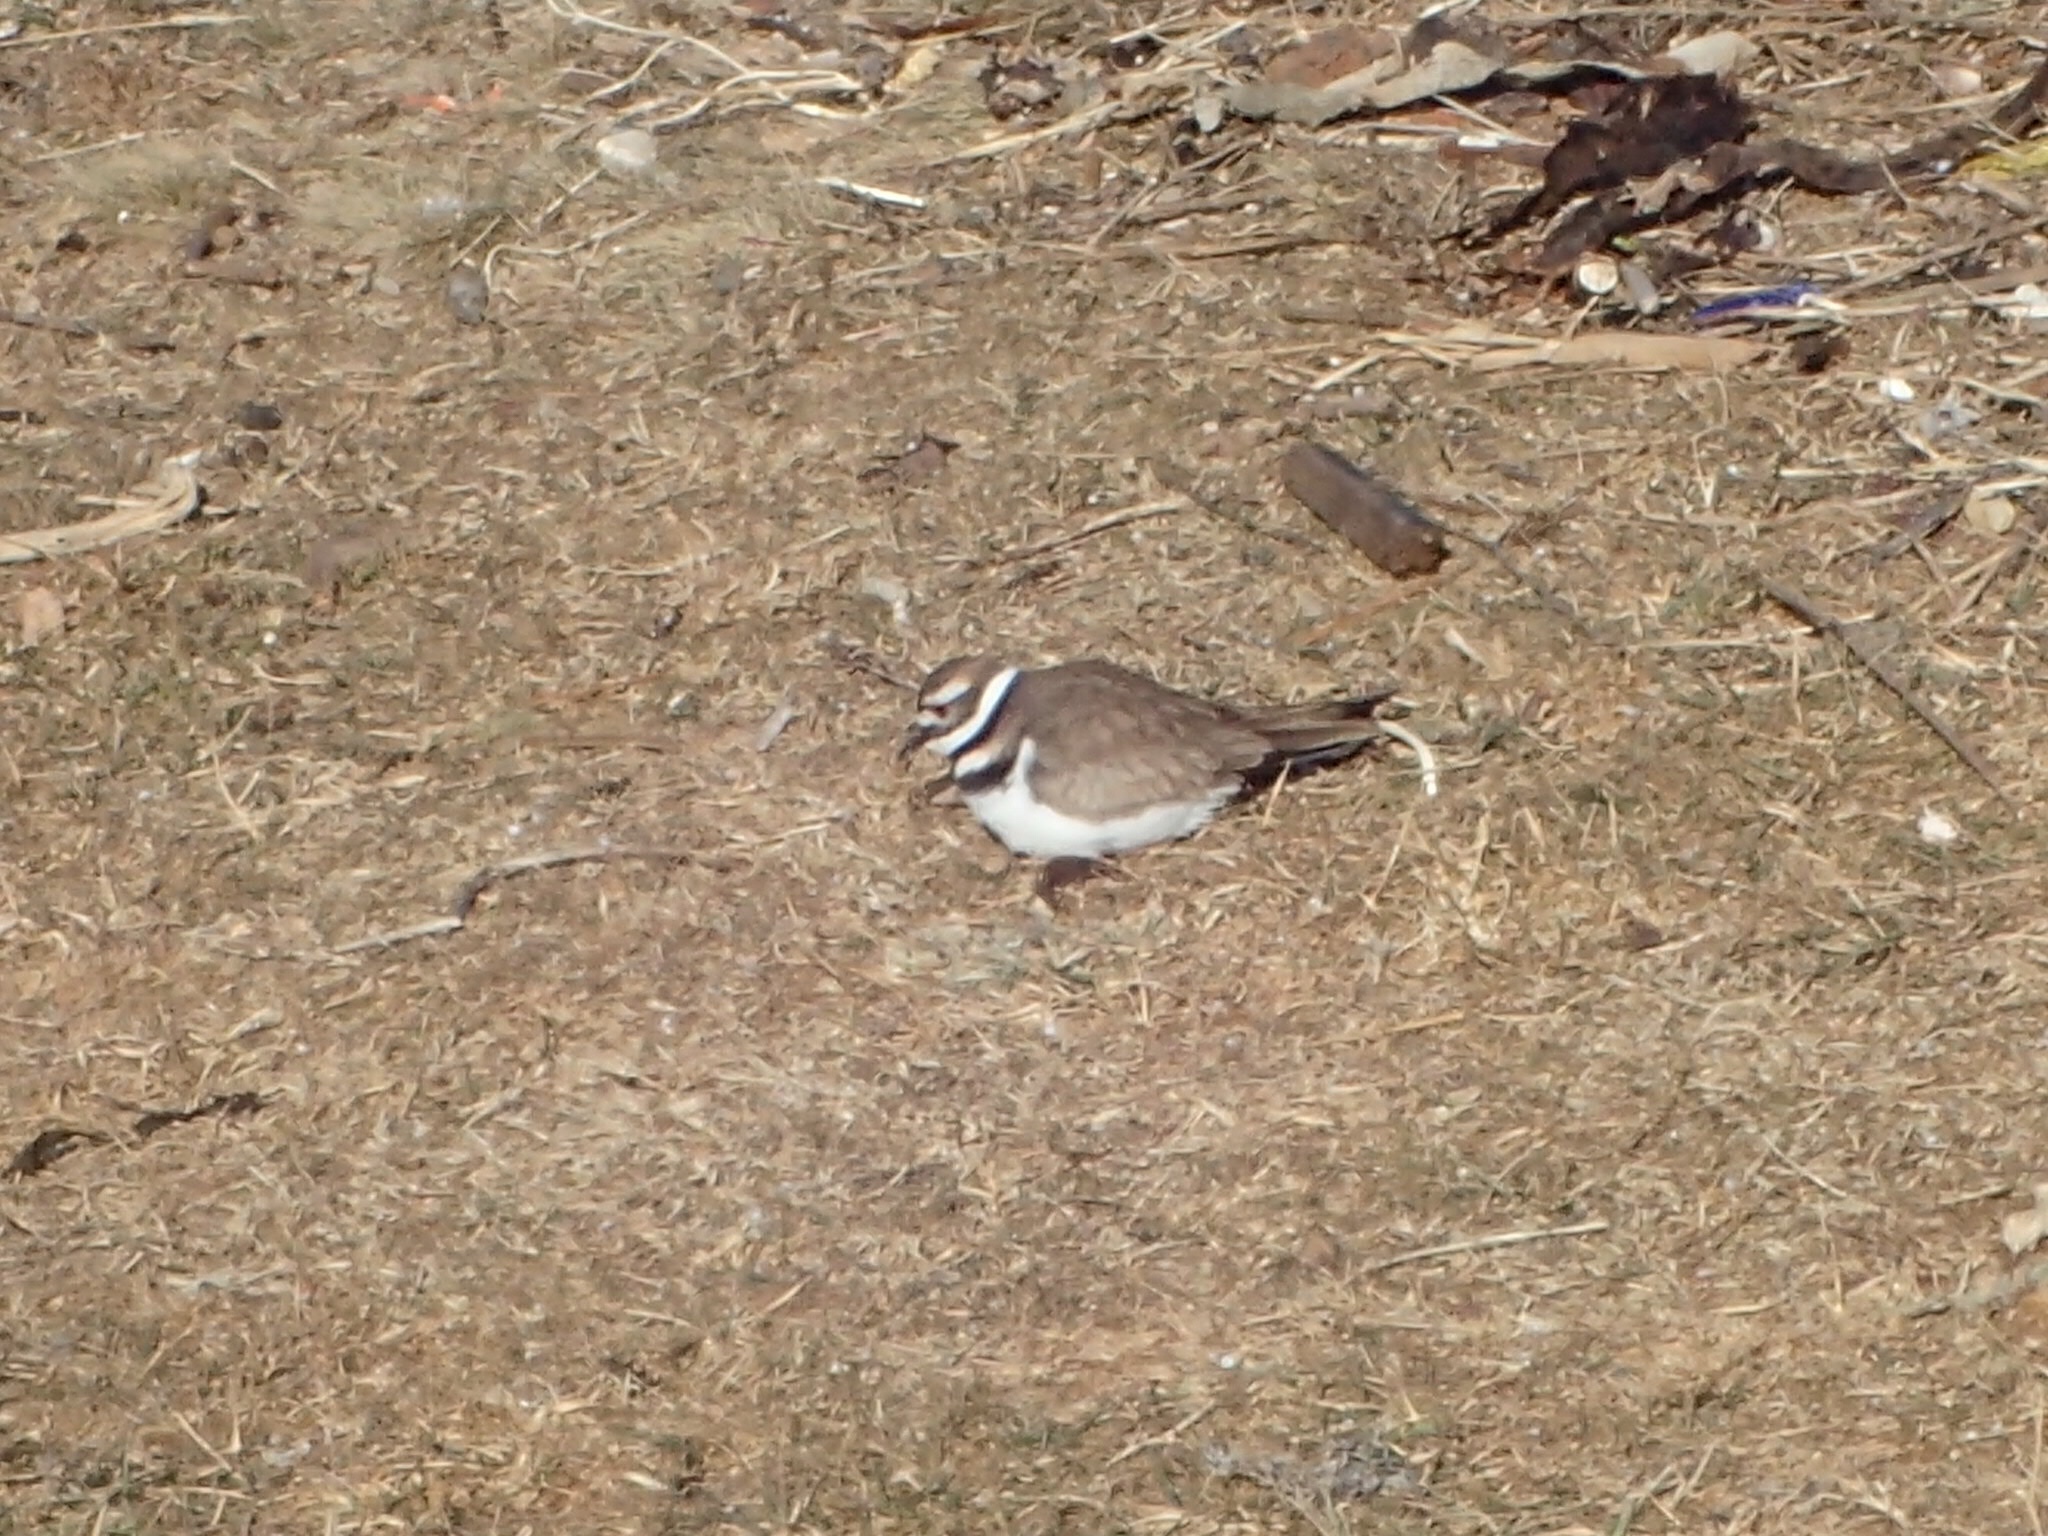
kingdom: Animalia
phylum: Chordata
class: Aves
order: Charadriiformes
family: Charadriidae
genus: Charadrius
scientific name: Charadrius vociferus
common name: Killdeer
